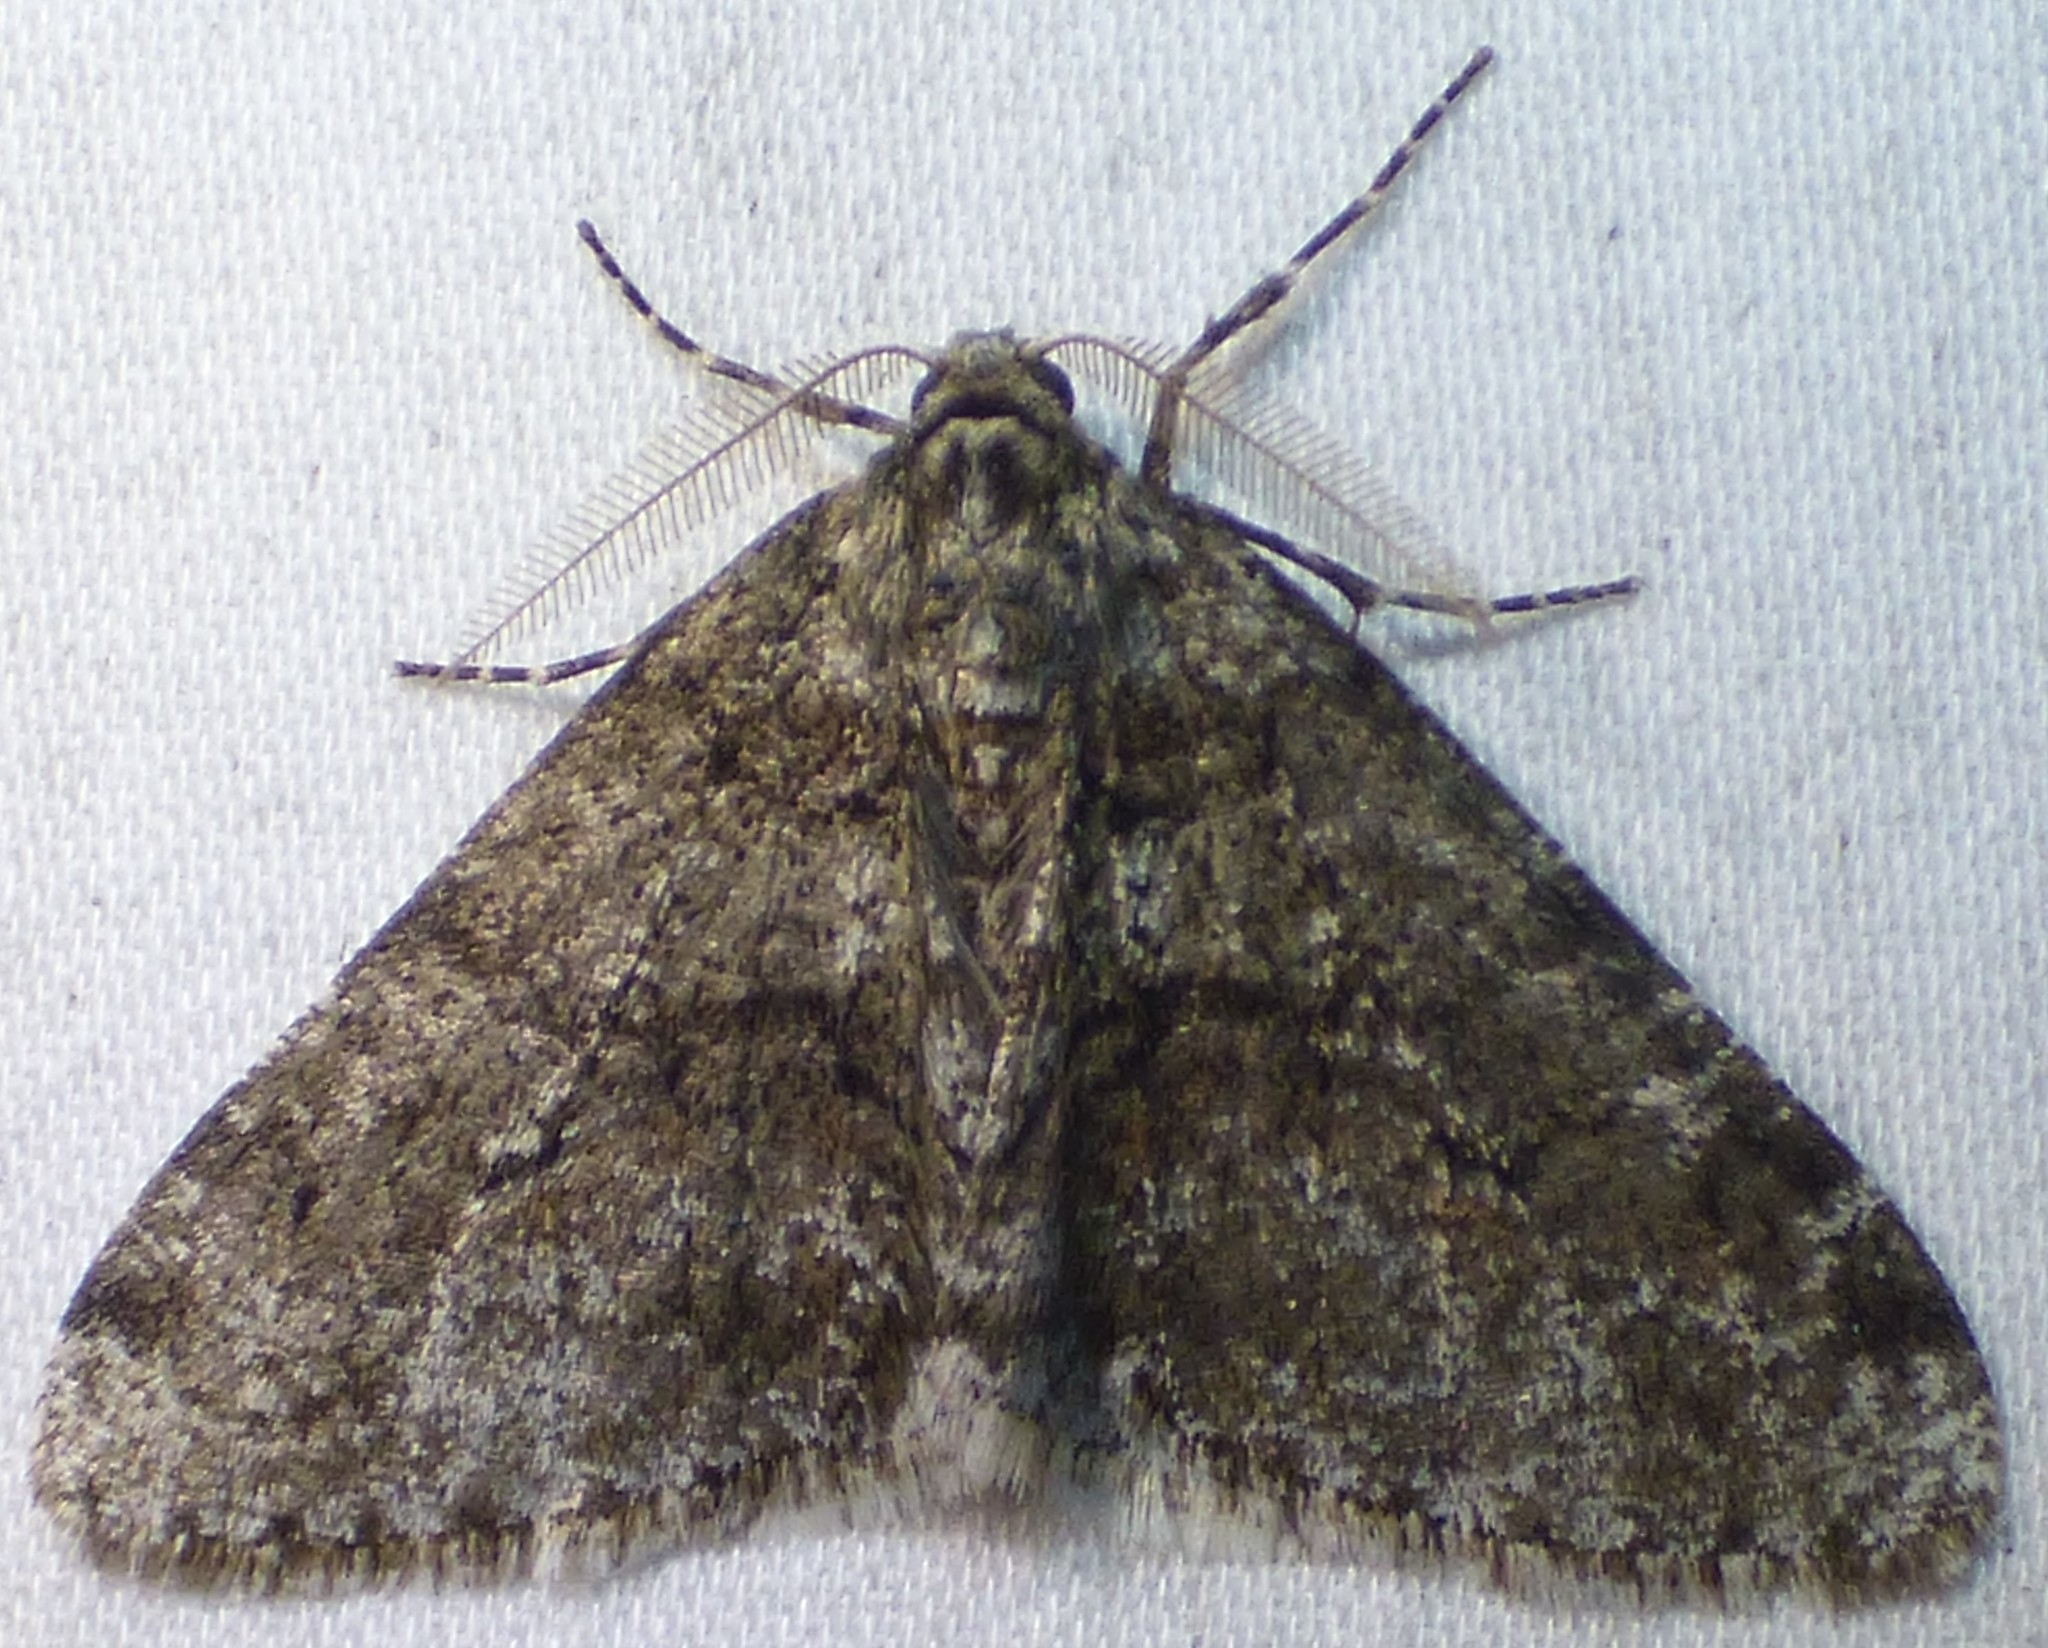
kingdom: Animalia
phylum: Arthropoda
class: Insecta
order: Lepidoptera
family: Geometridae
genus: Phigalia
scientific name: Phigalia strigataria
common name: Small phigalia
